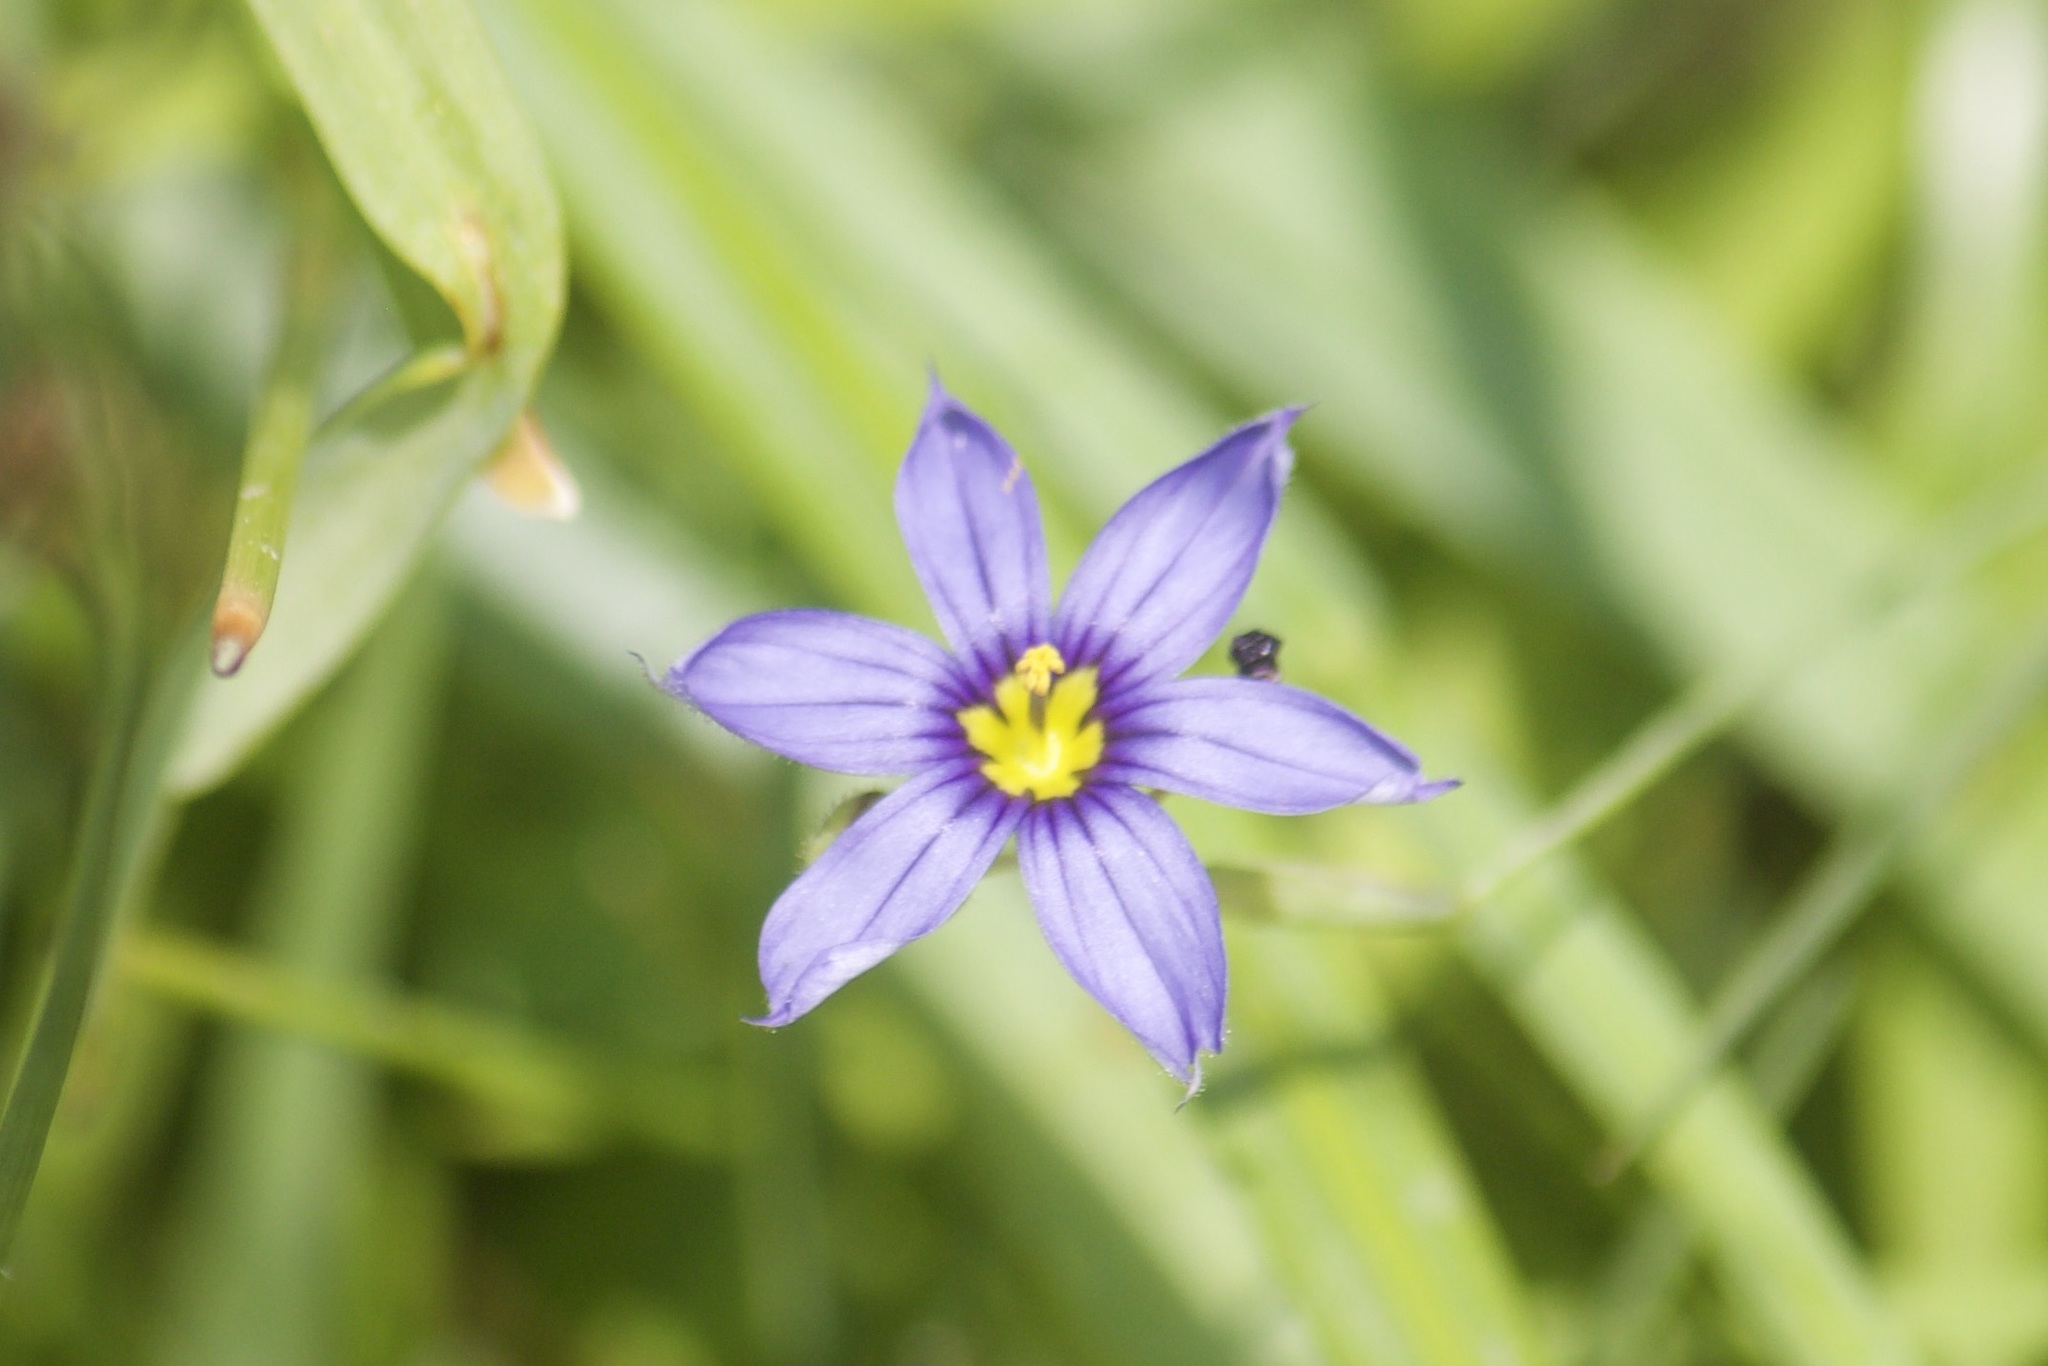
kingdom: Plantae
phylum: Tracheophyta
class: Liliopsida
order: Asparagales
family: Iridaceae
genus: Sisyrinchium
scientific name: Sisyrinchium idahoense
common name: Idaho blue-eyed-grass
